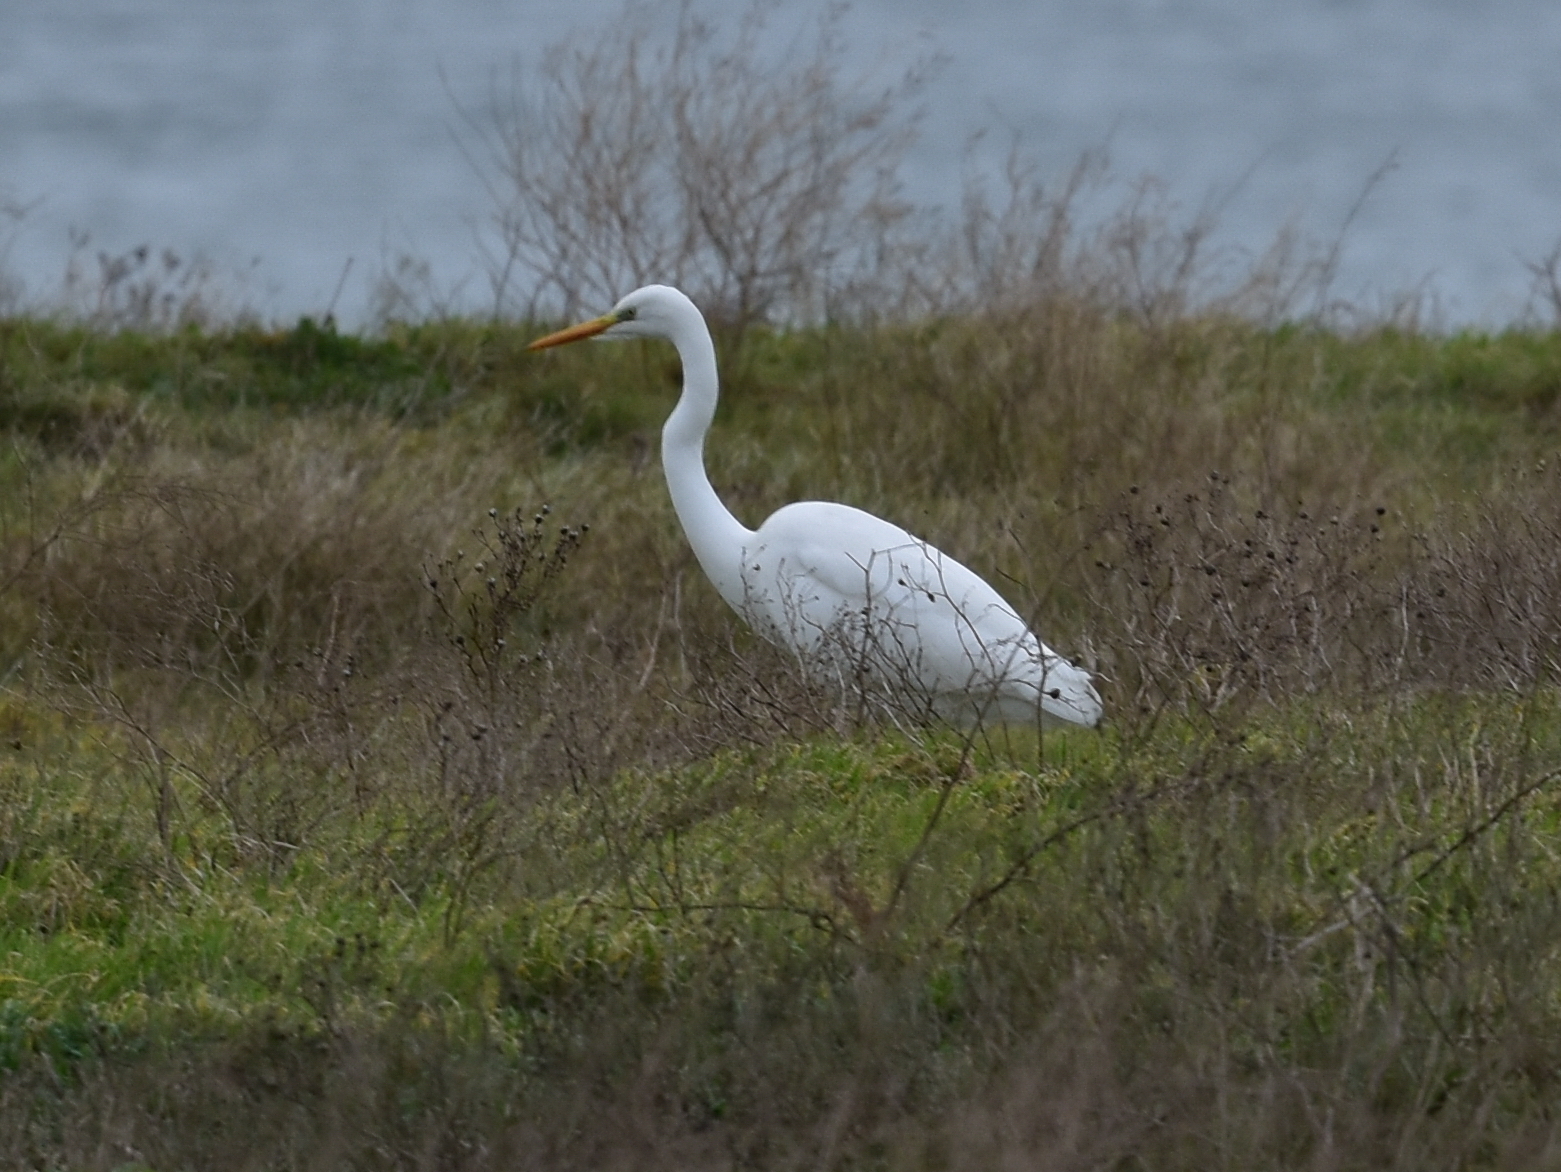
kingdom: Animalia
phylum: Chordata
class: Aves
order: Pelecaniformes
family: Ardeidae
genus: Ardea
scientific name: Ardea alba
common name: Great egret
